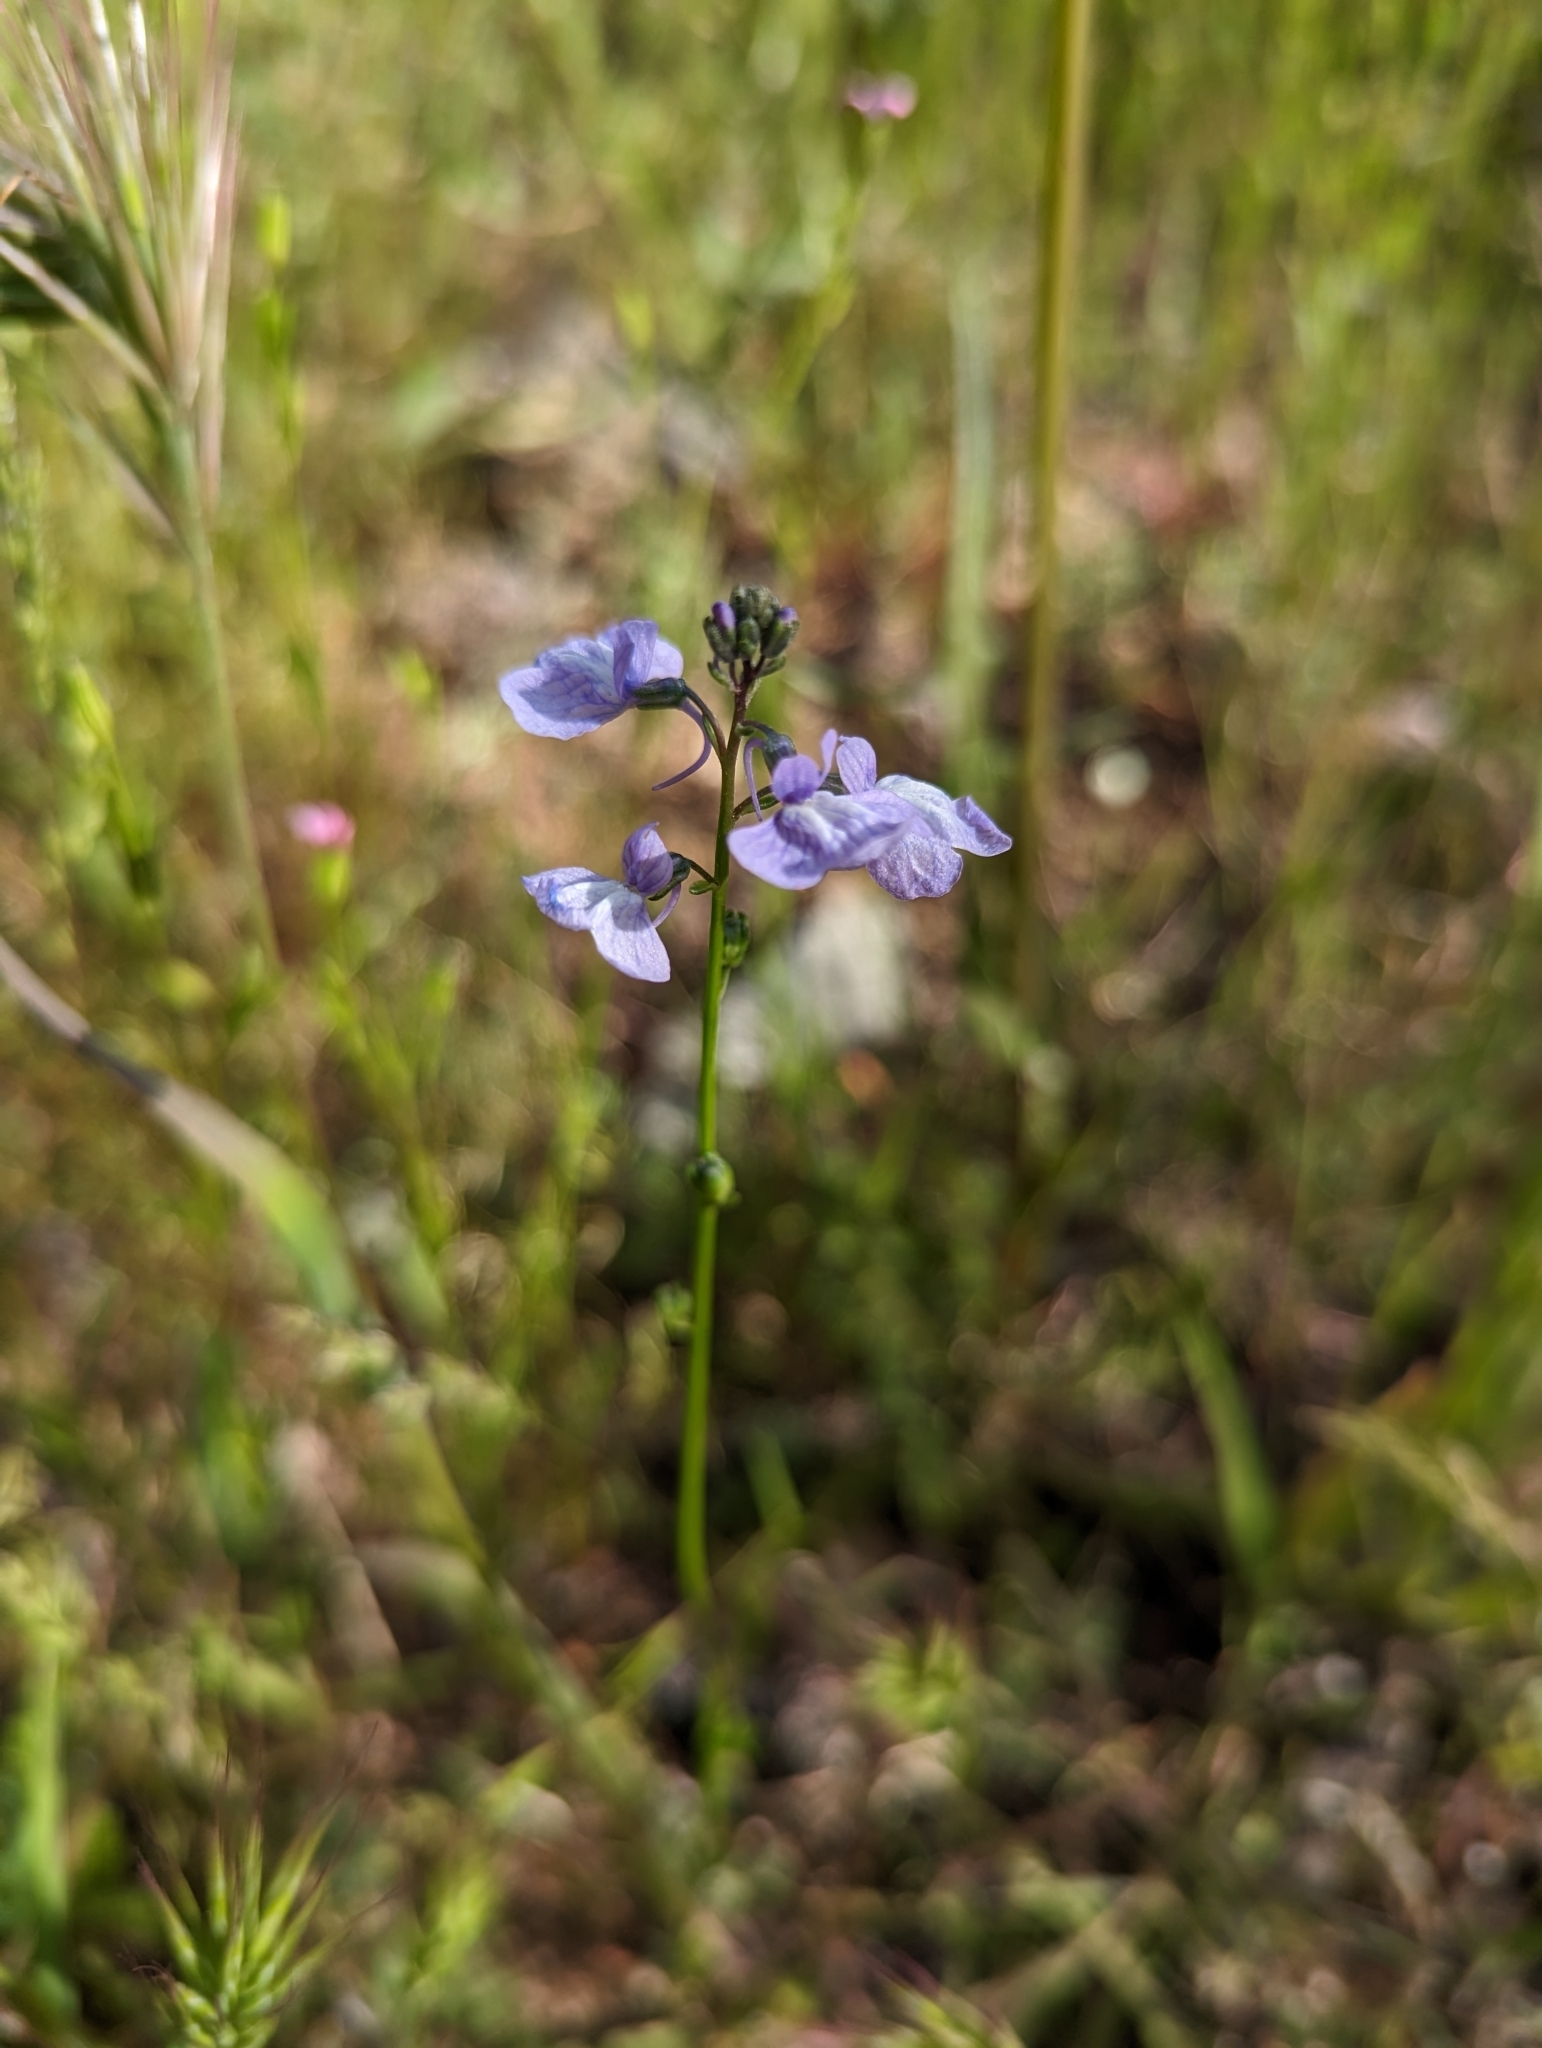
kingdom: Plantae
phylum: Tracheophyta
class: Magnoliopsida
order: Lamiales
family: Plantaginaceae
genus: Nuttallanthus
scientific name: Nuttallanthus texanus
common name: Texas toadflax
